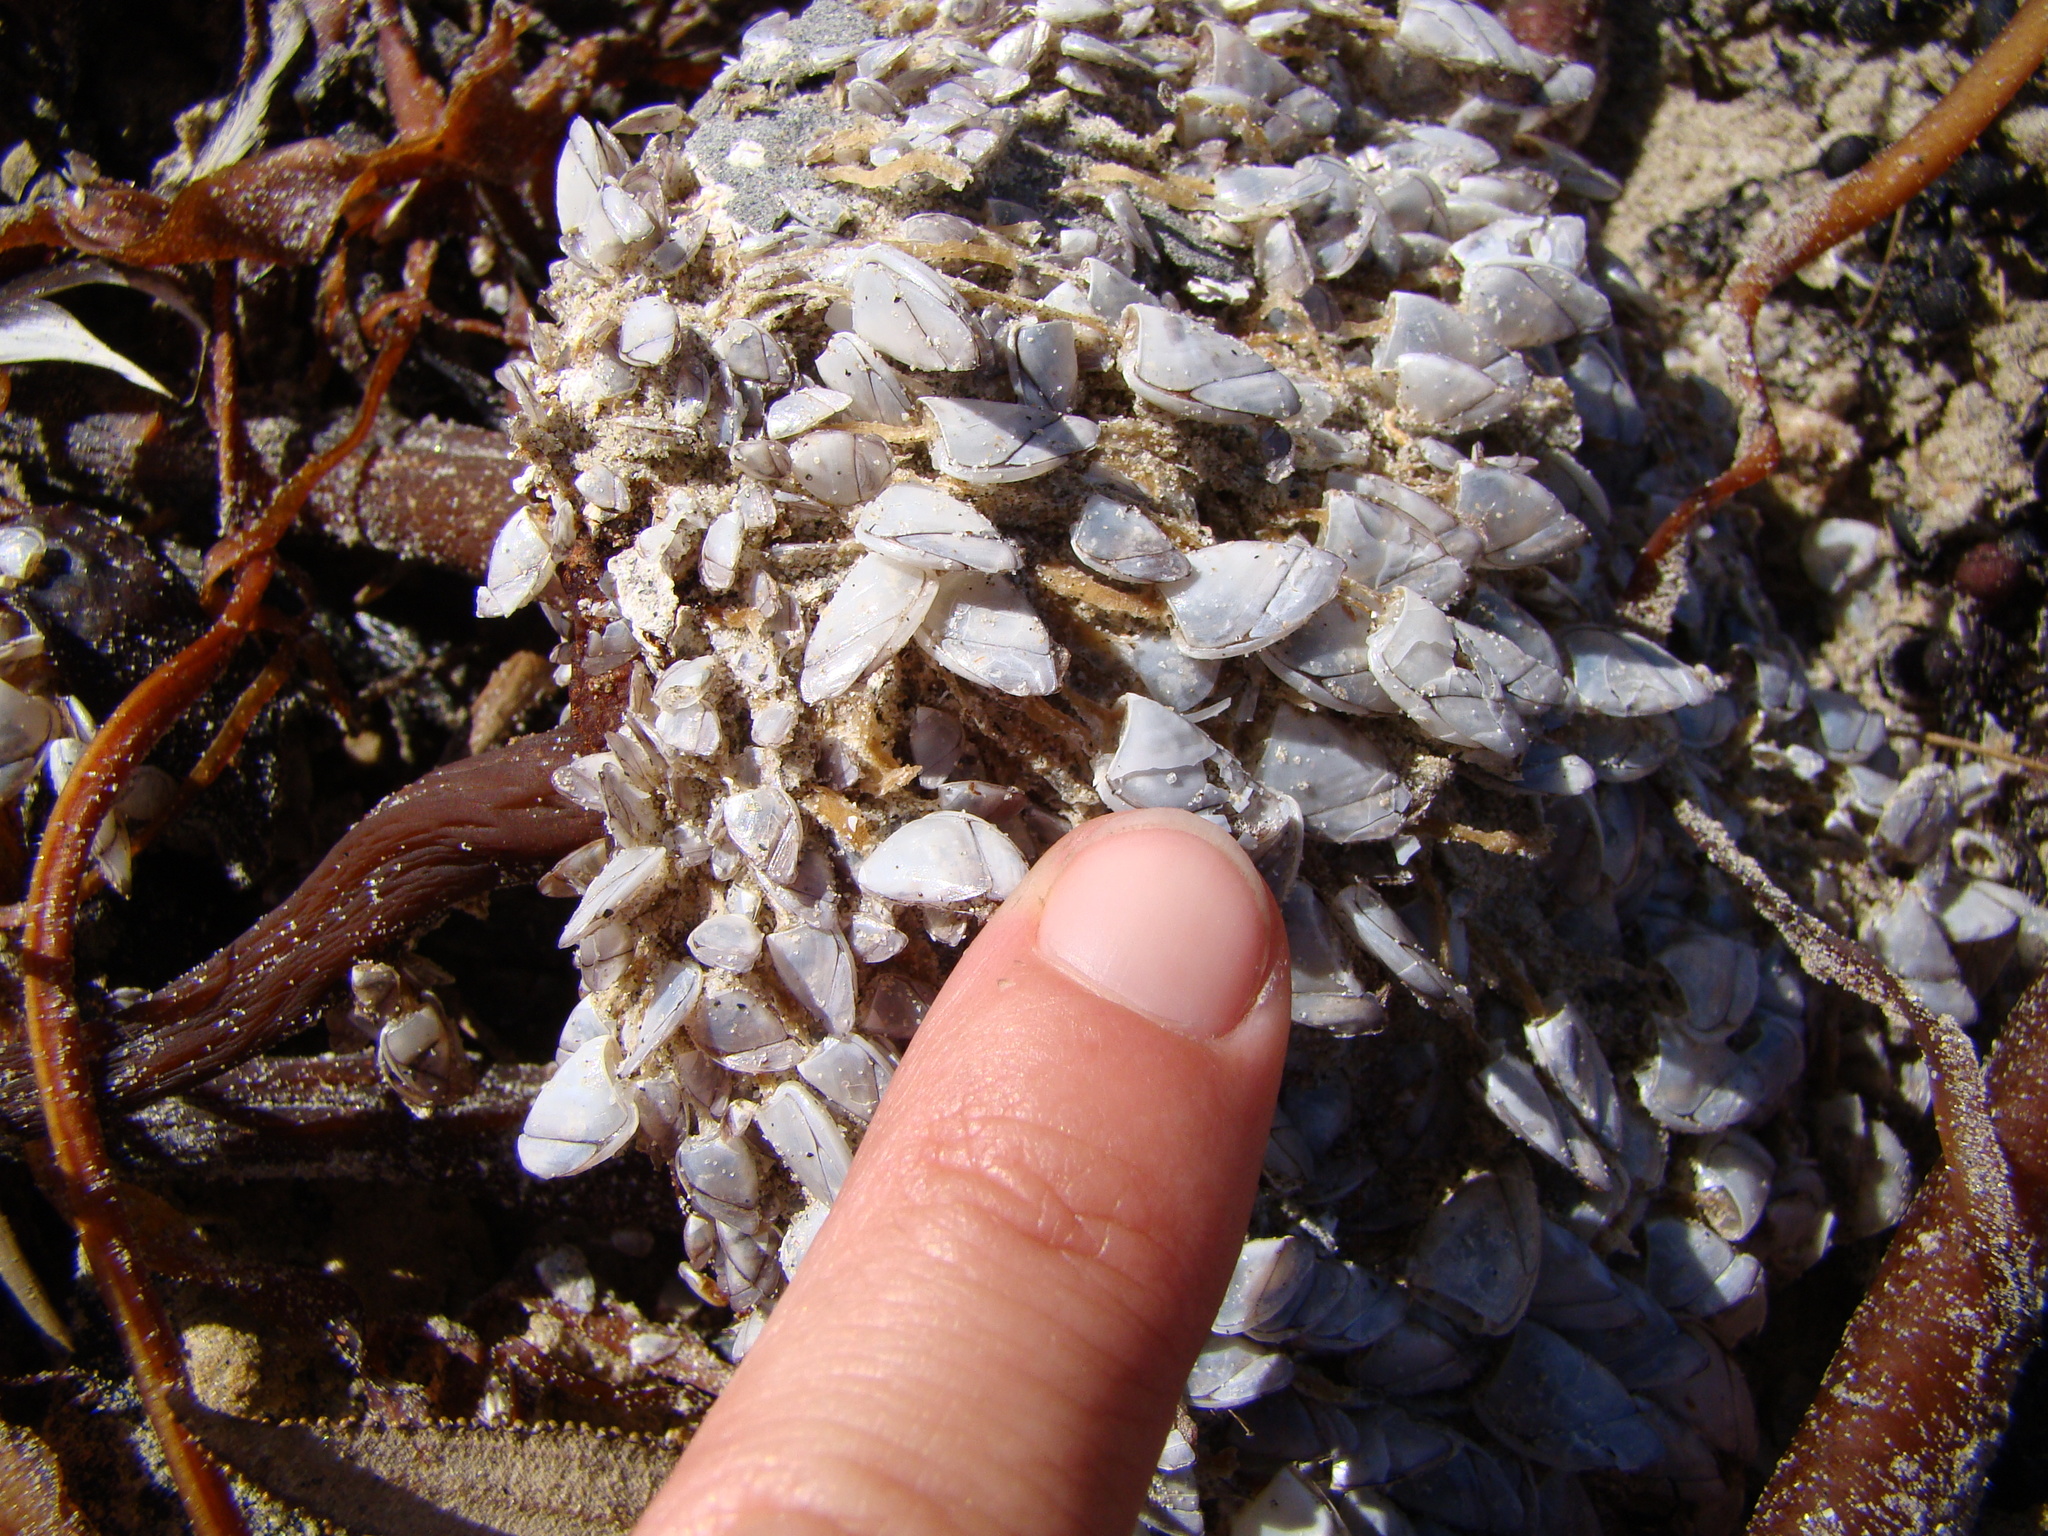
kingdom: Animalia
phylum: Arthropoda
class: Maxillopoda
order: Pedunculata
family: Lepadidae
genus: Lepas
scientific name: Lepas australis
